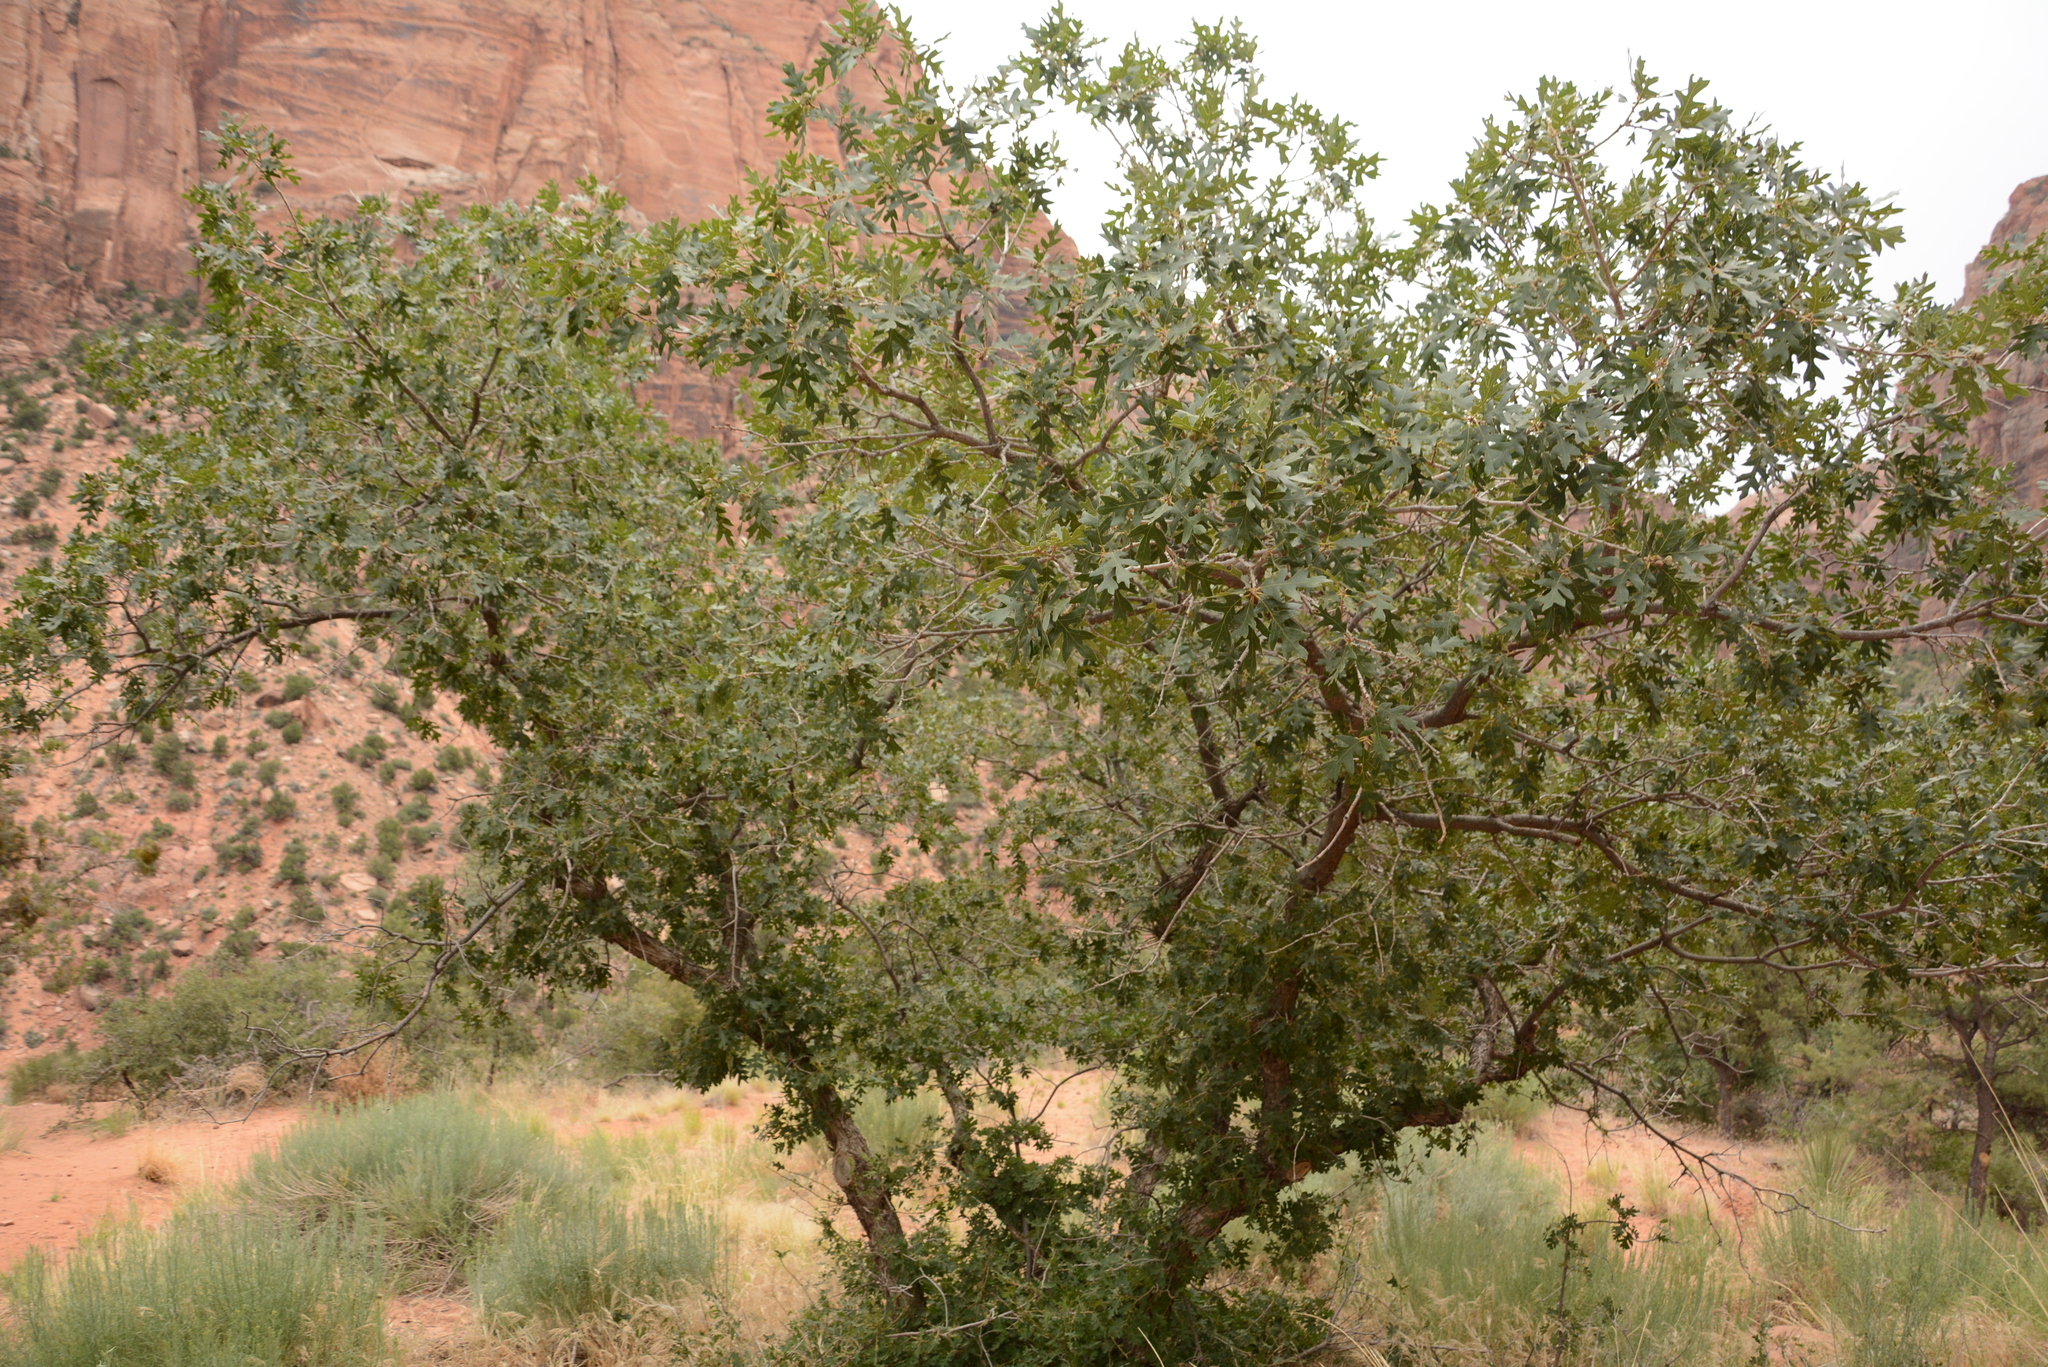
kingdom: Plantae
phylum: Tracheophyta
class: Magnoliopsida
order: Fagales
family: Fagaceae
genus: Quercus
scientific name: Quercus gambelii
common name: Gambel oak
